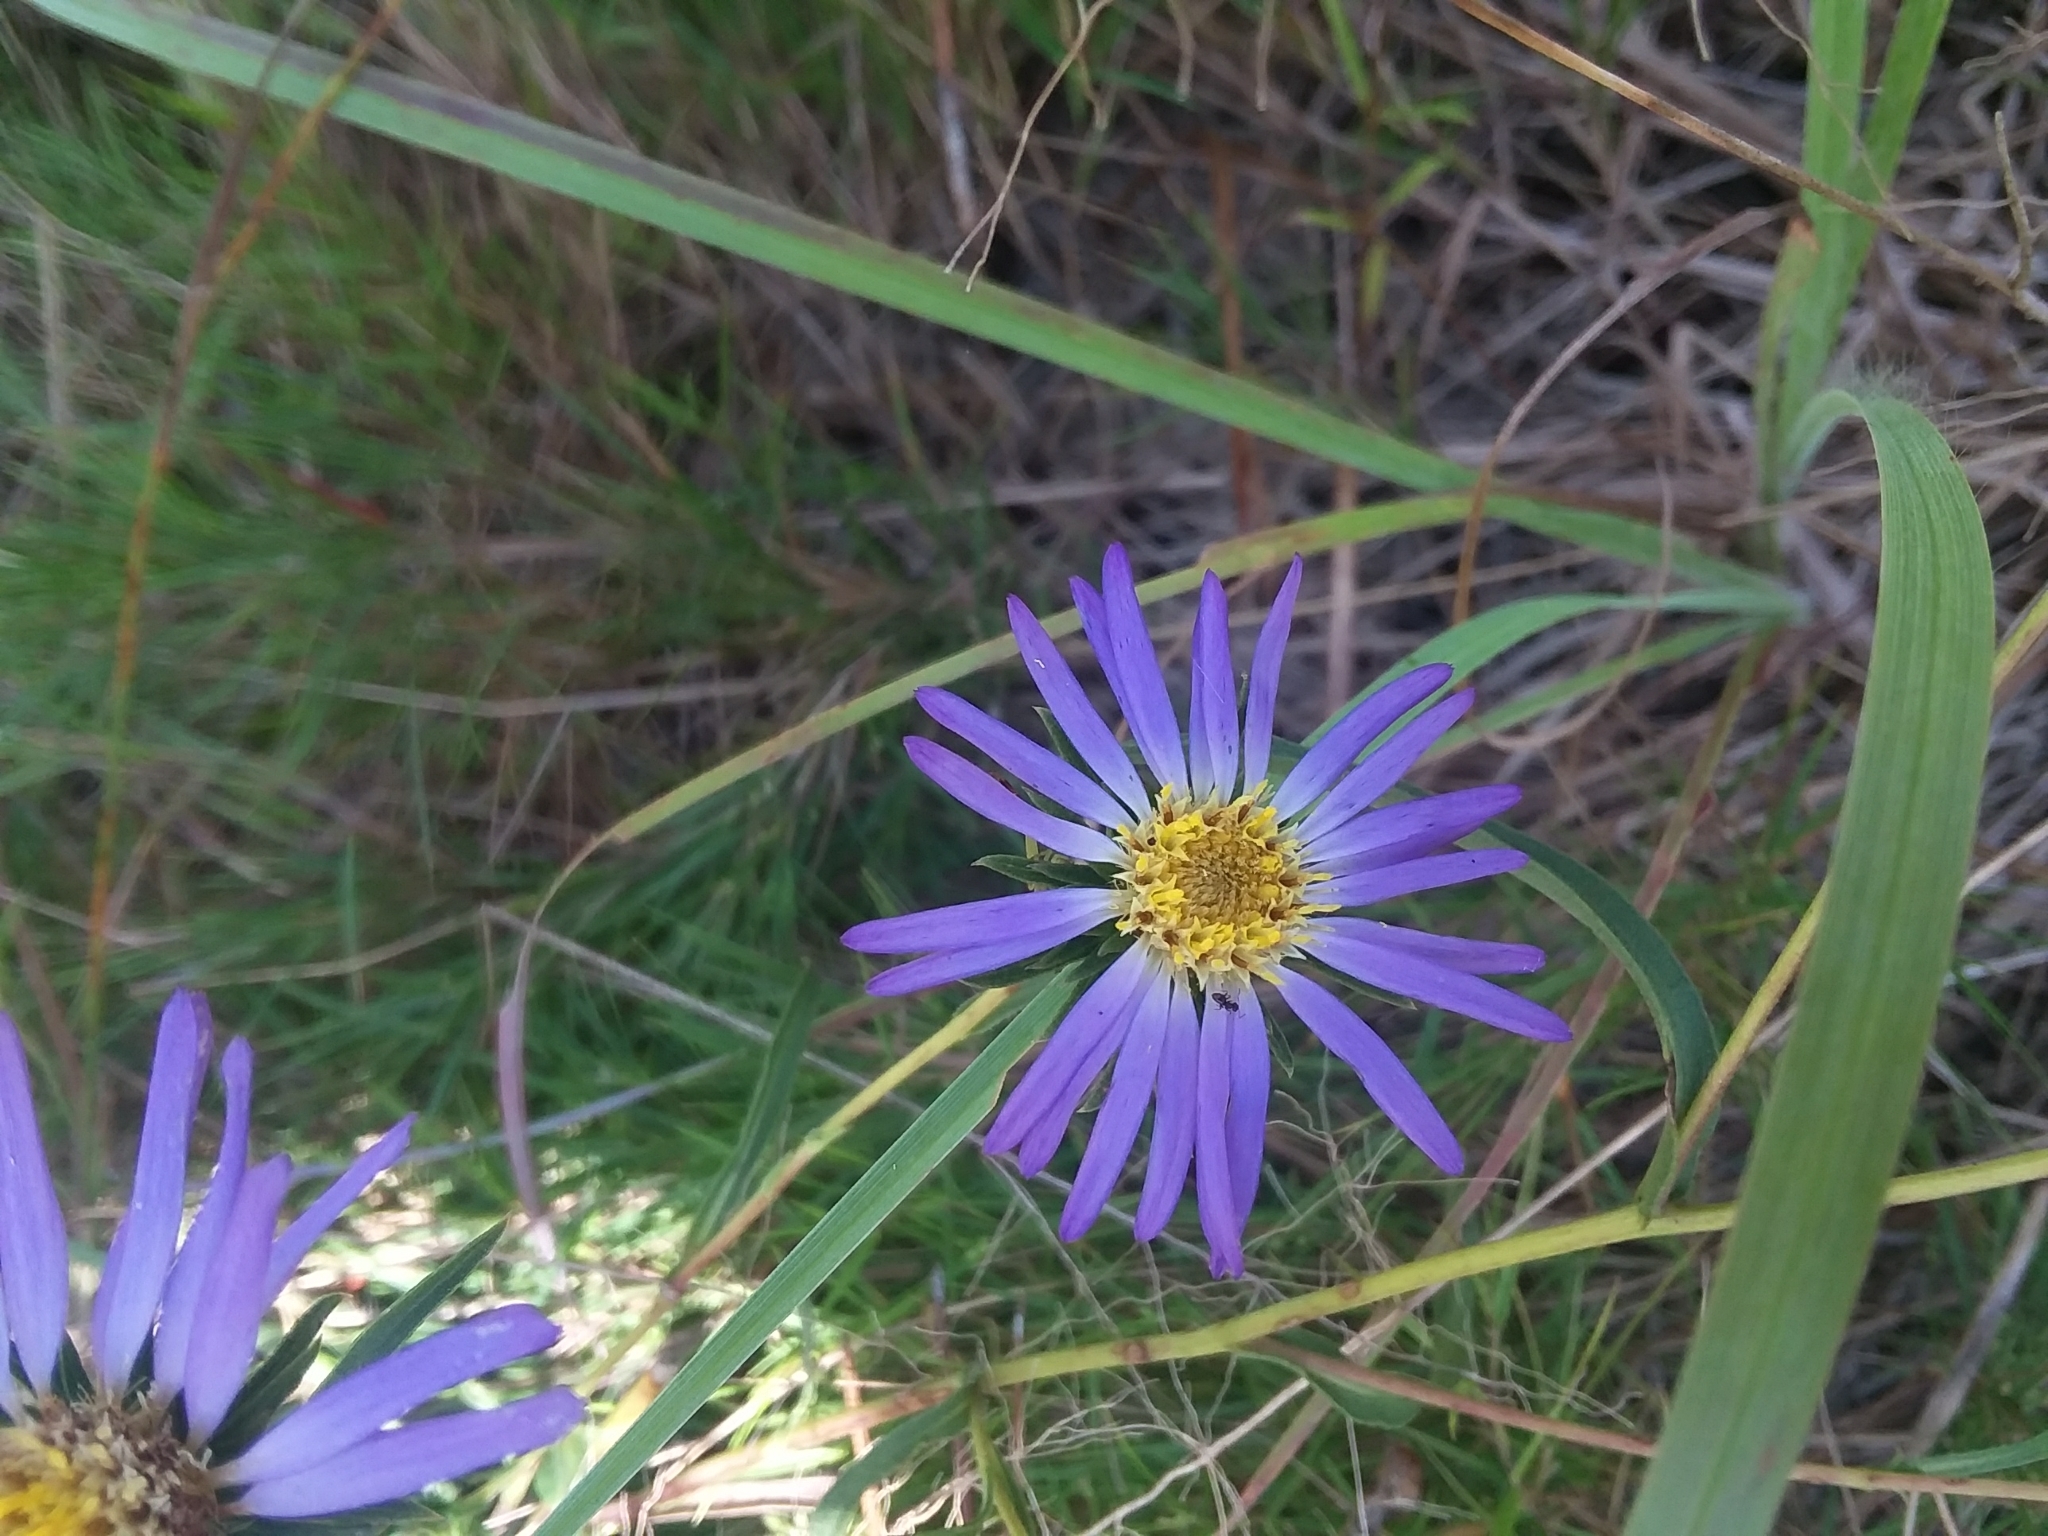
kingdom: Plantae
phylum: Tracheophyta
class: Magnoliopsida
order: Asterales
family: Asteraceae
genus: Eurybia
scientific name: Eurybia hemispherica
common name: Showy aster
